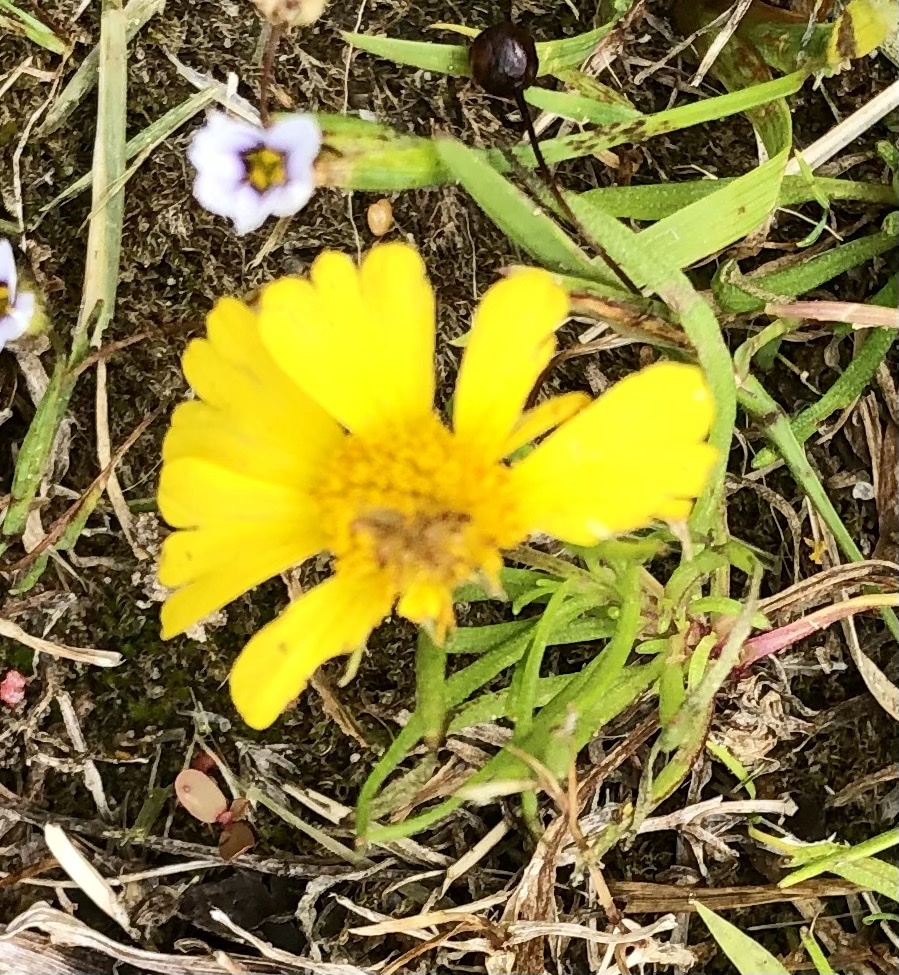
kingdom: Plantae
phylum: Tracheophyta
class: Magnoliopsida
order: Asterales
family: Asteraceae
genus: Helenium
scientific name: Helenium amarum
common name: Bitter sneezeweed
